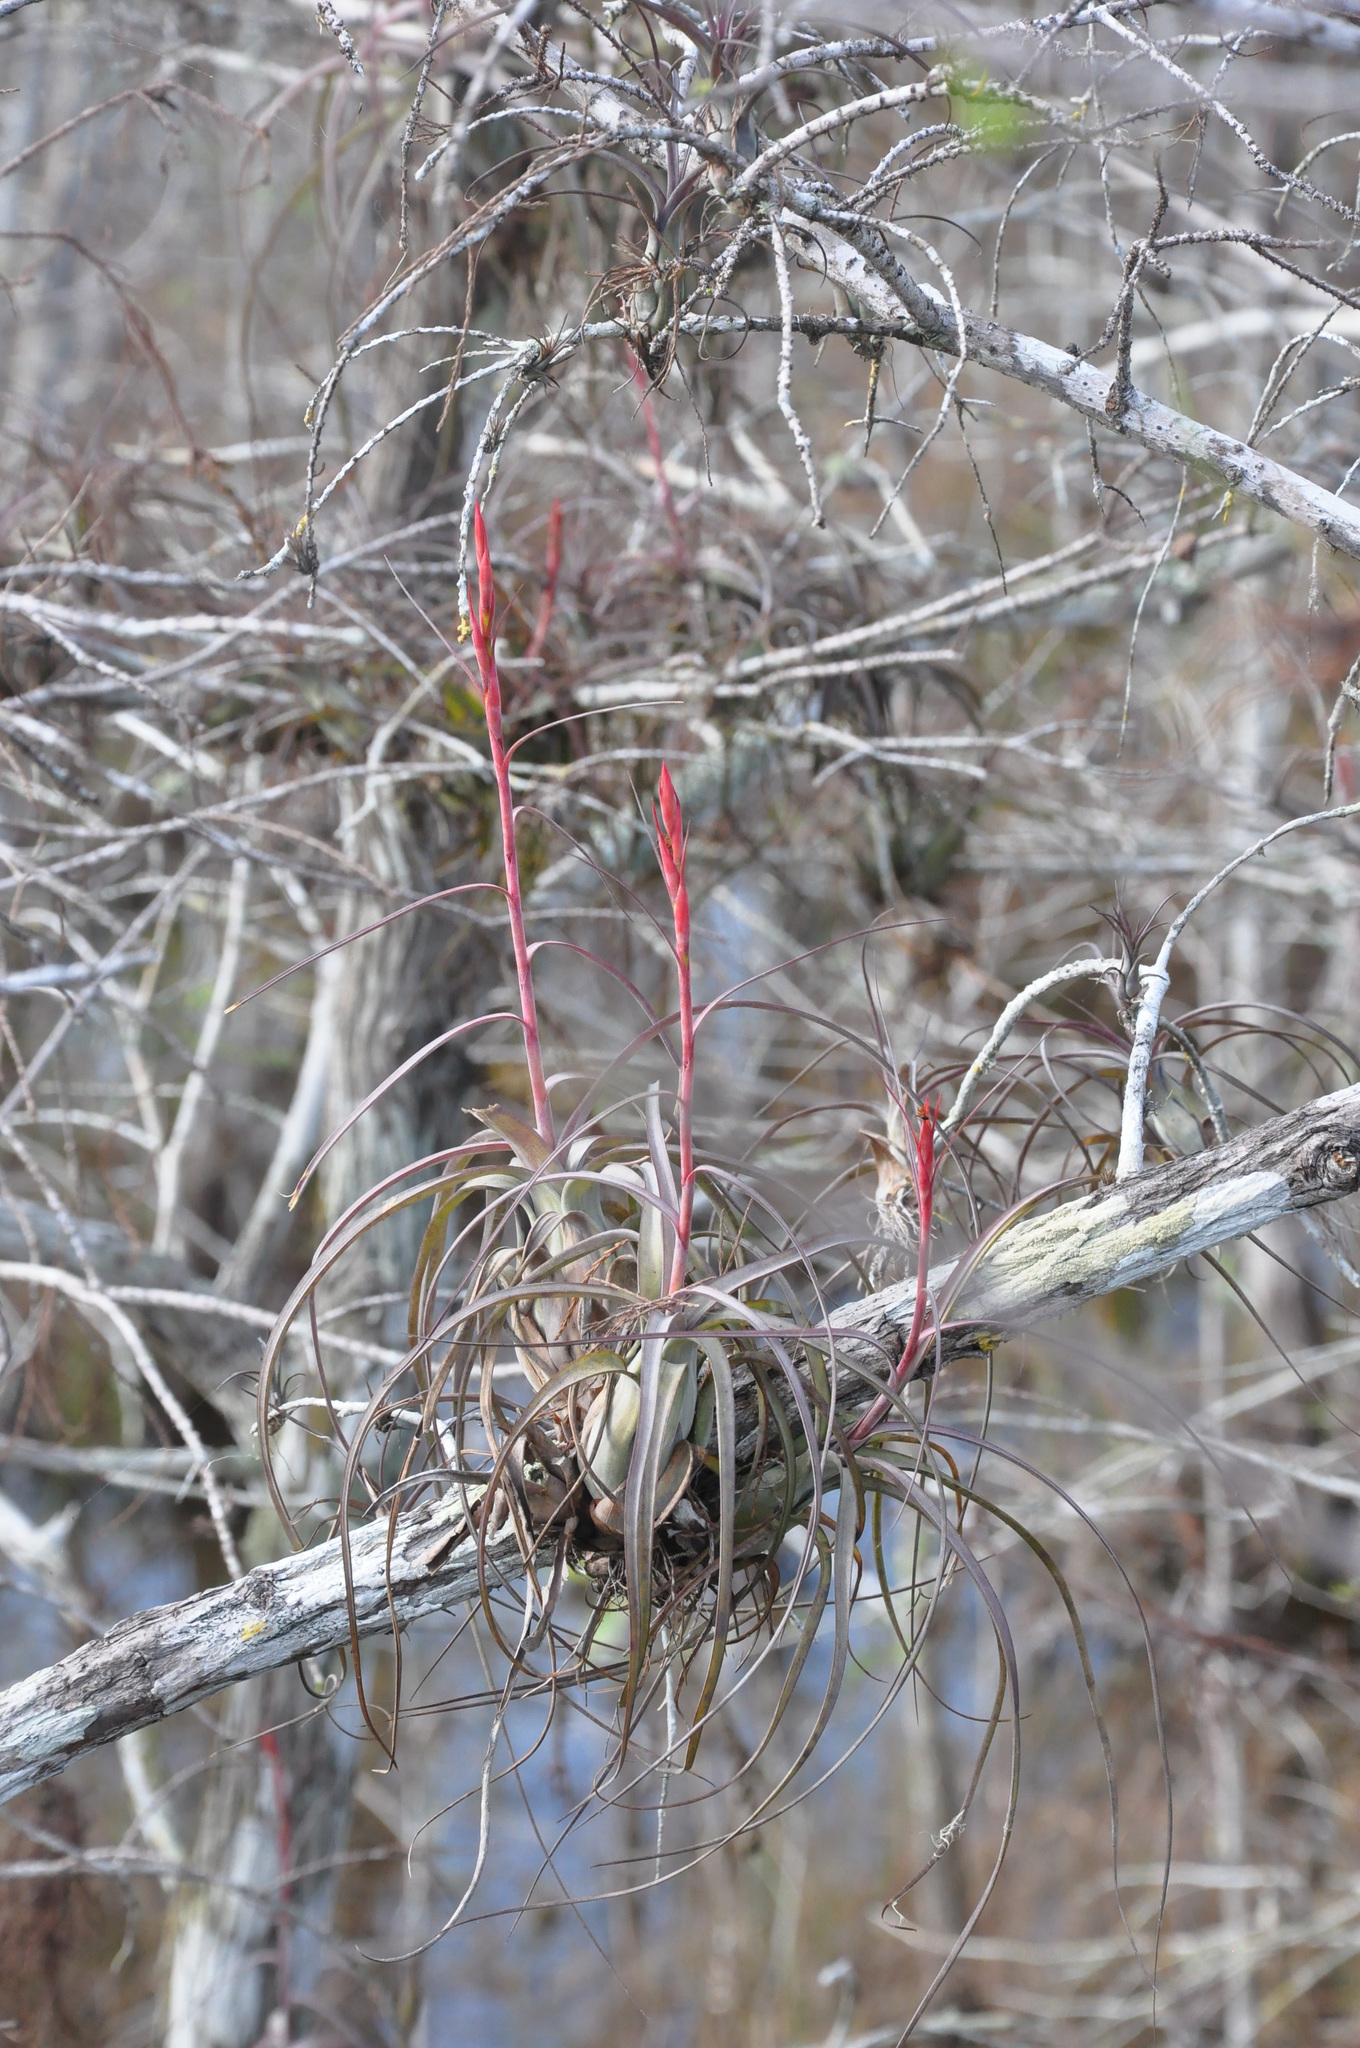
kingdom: Plantae
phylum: Tracheophyta
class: Liliopsida
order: Poales
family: Bromeliaceae
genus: Tillandsia
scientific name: Tillandsia balbisiana
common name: Northern needleleaf
